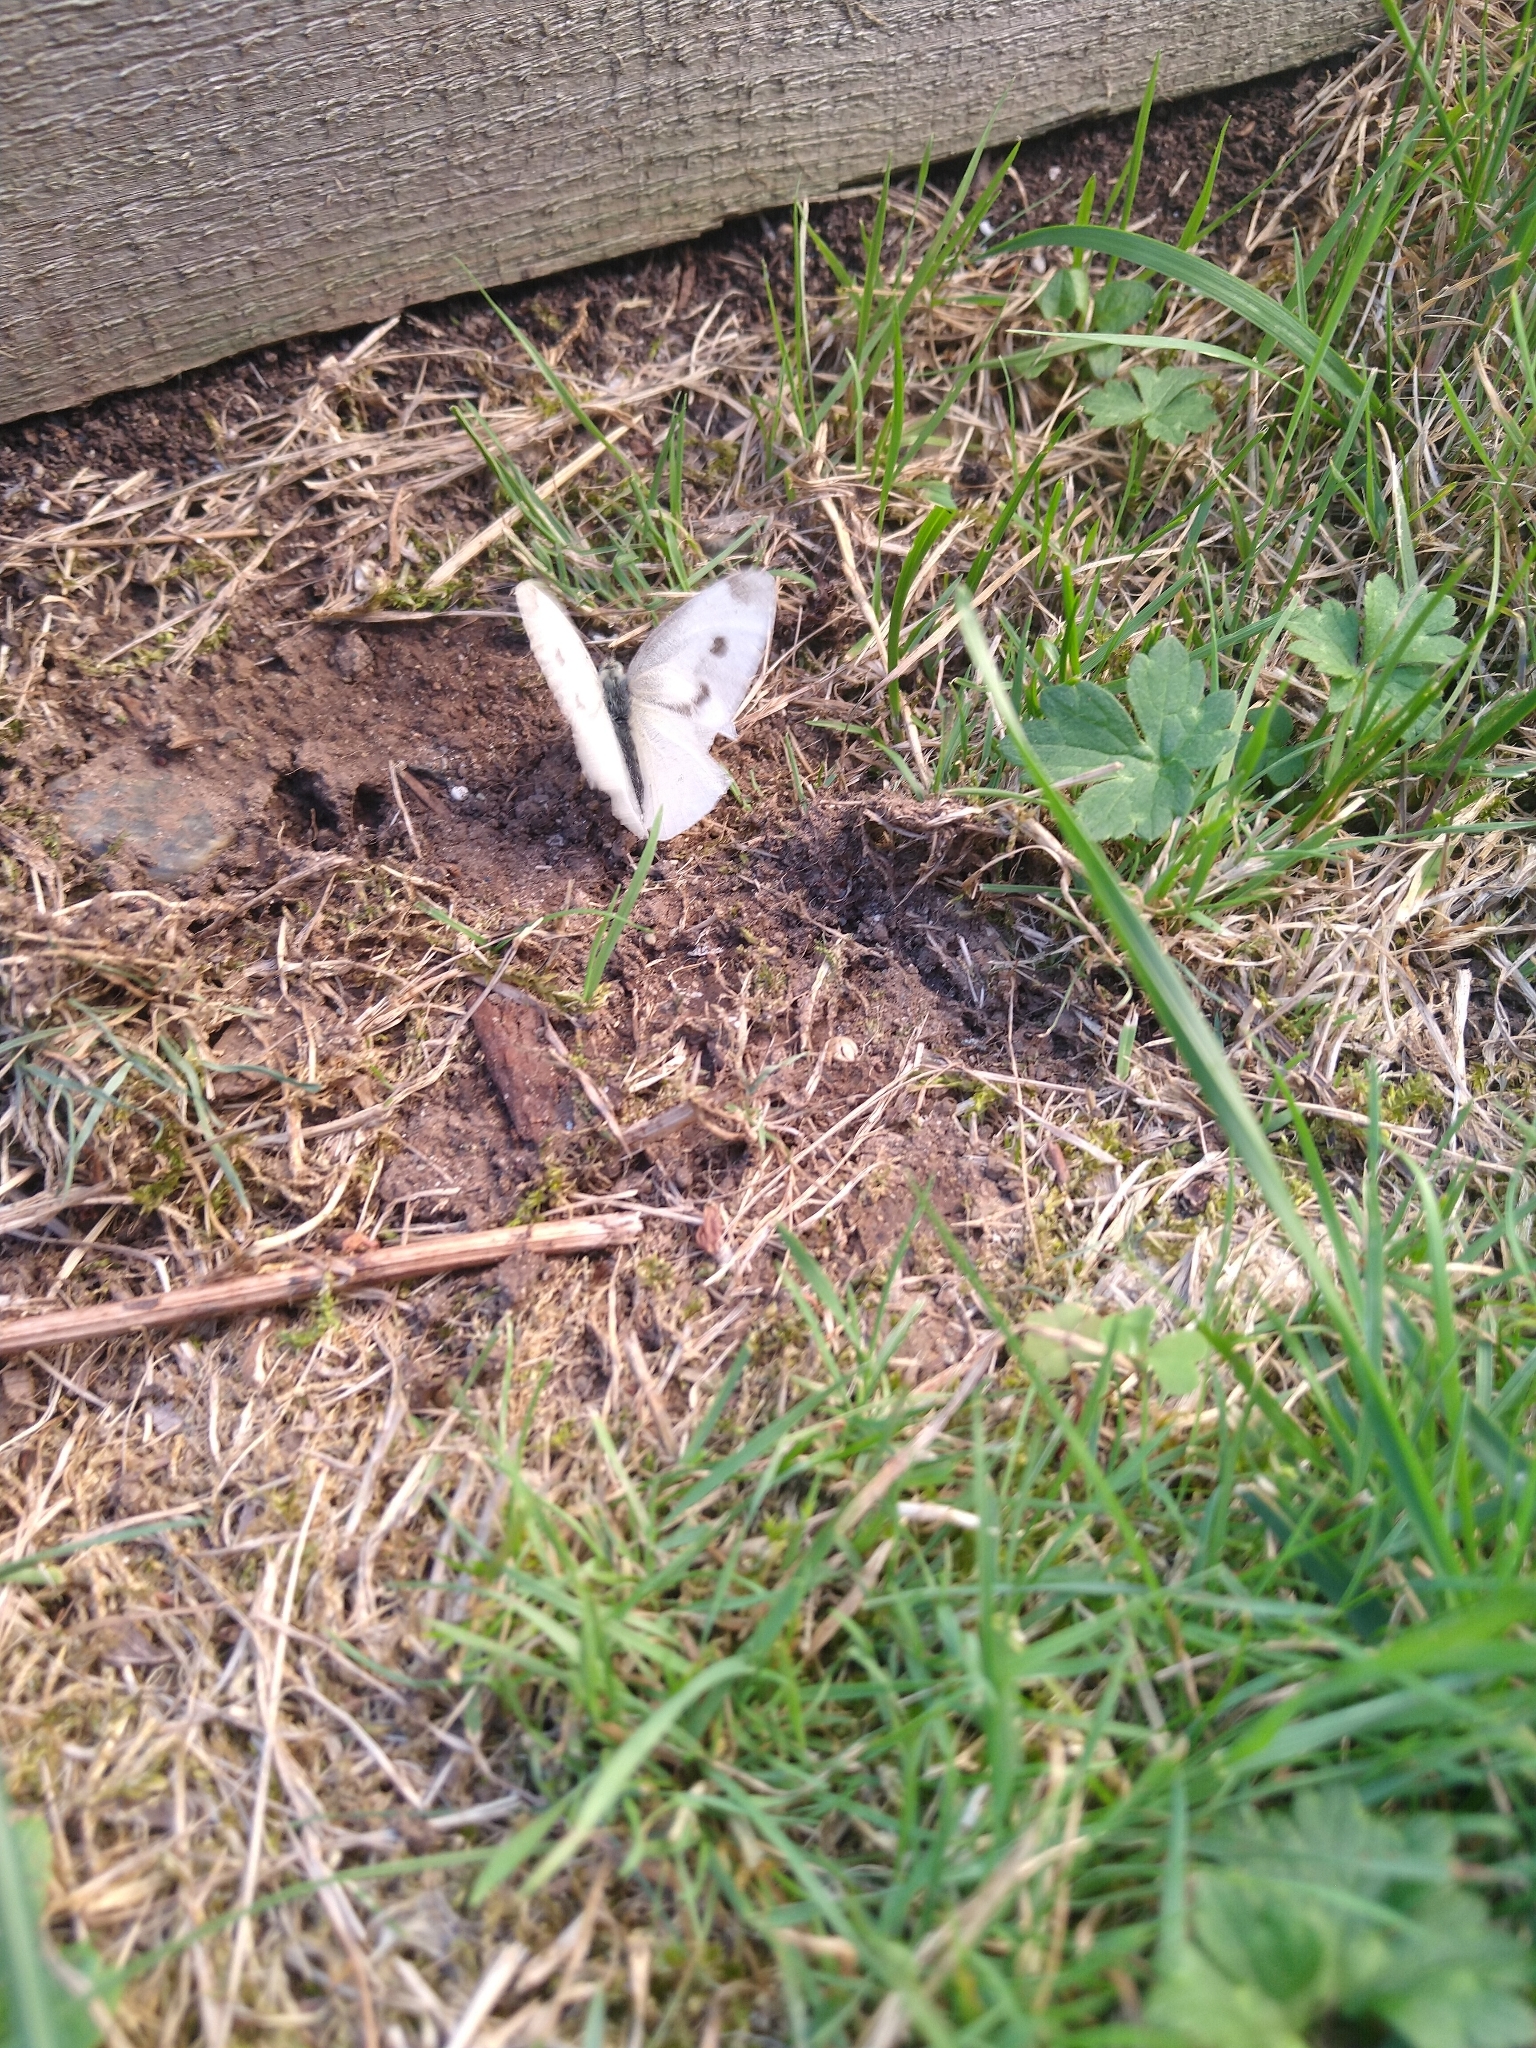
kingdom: Animalia
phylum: Arthropoda
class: Insecta
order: Lepidoptera
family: Pieridae
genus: Pieris
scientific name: Pieris rapae
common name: Small white
